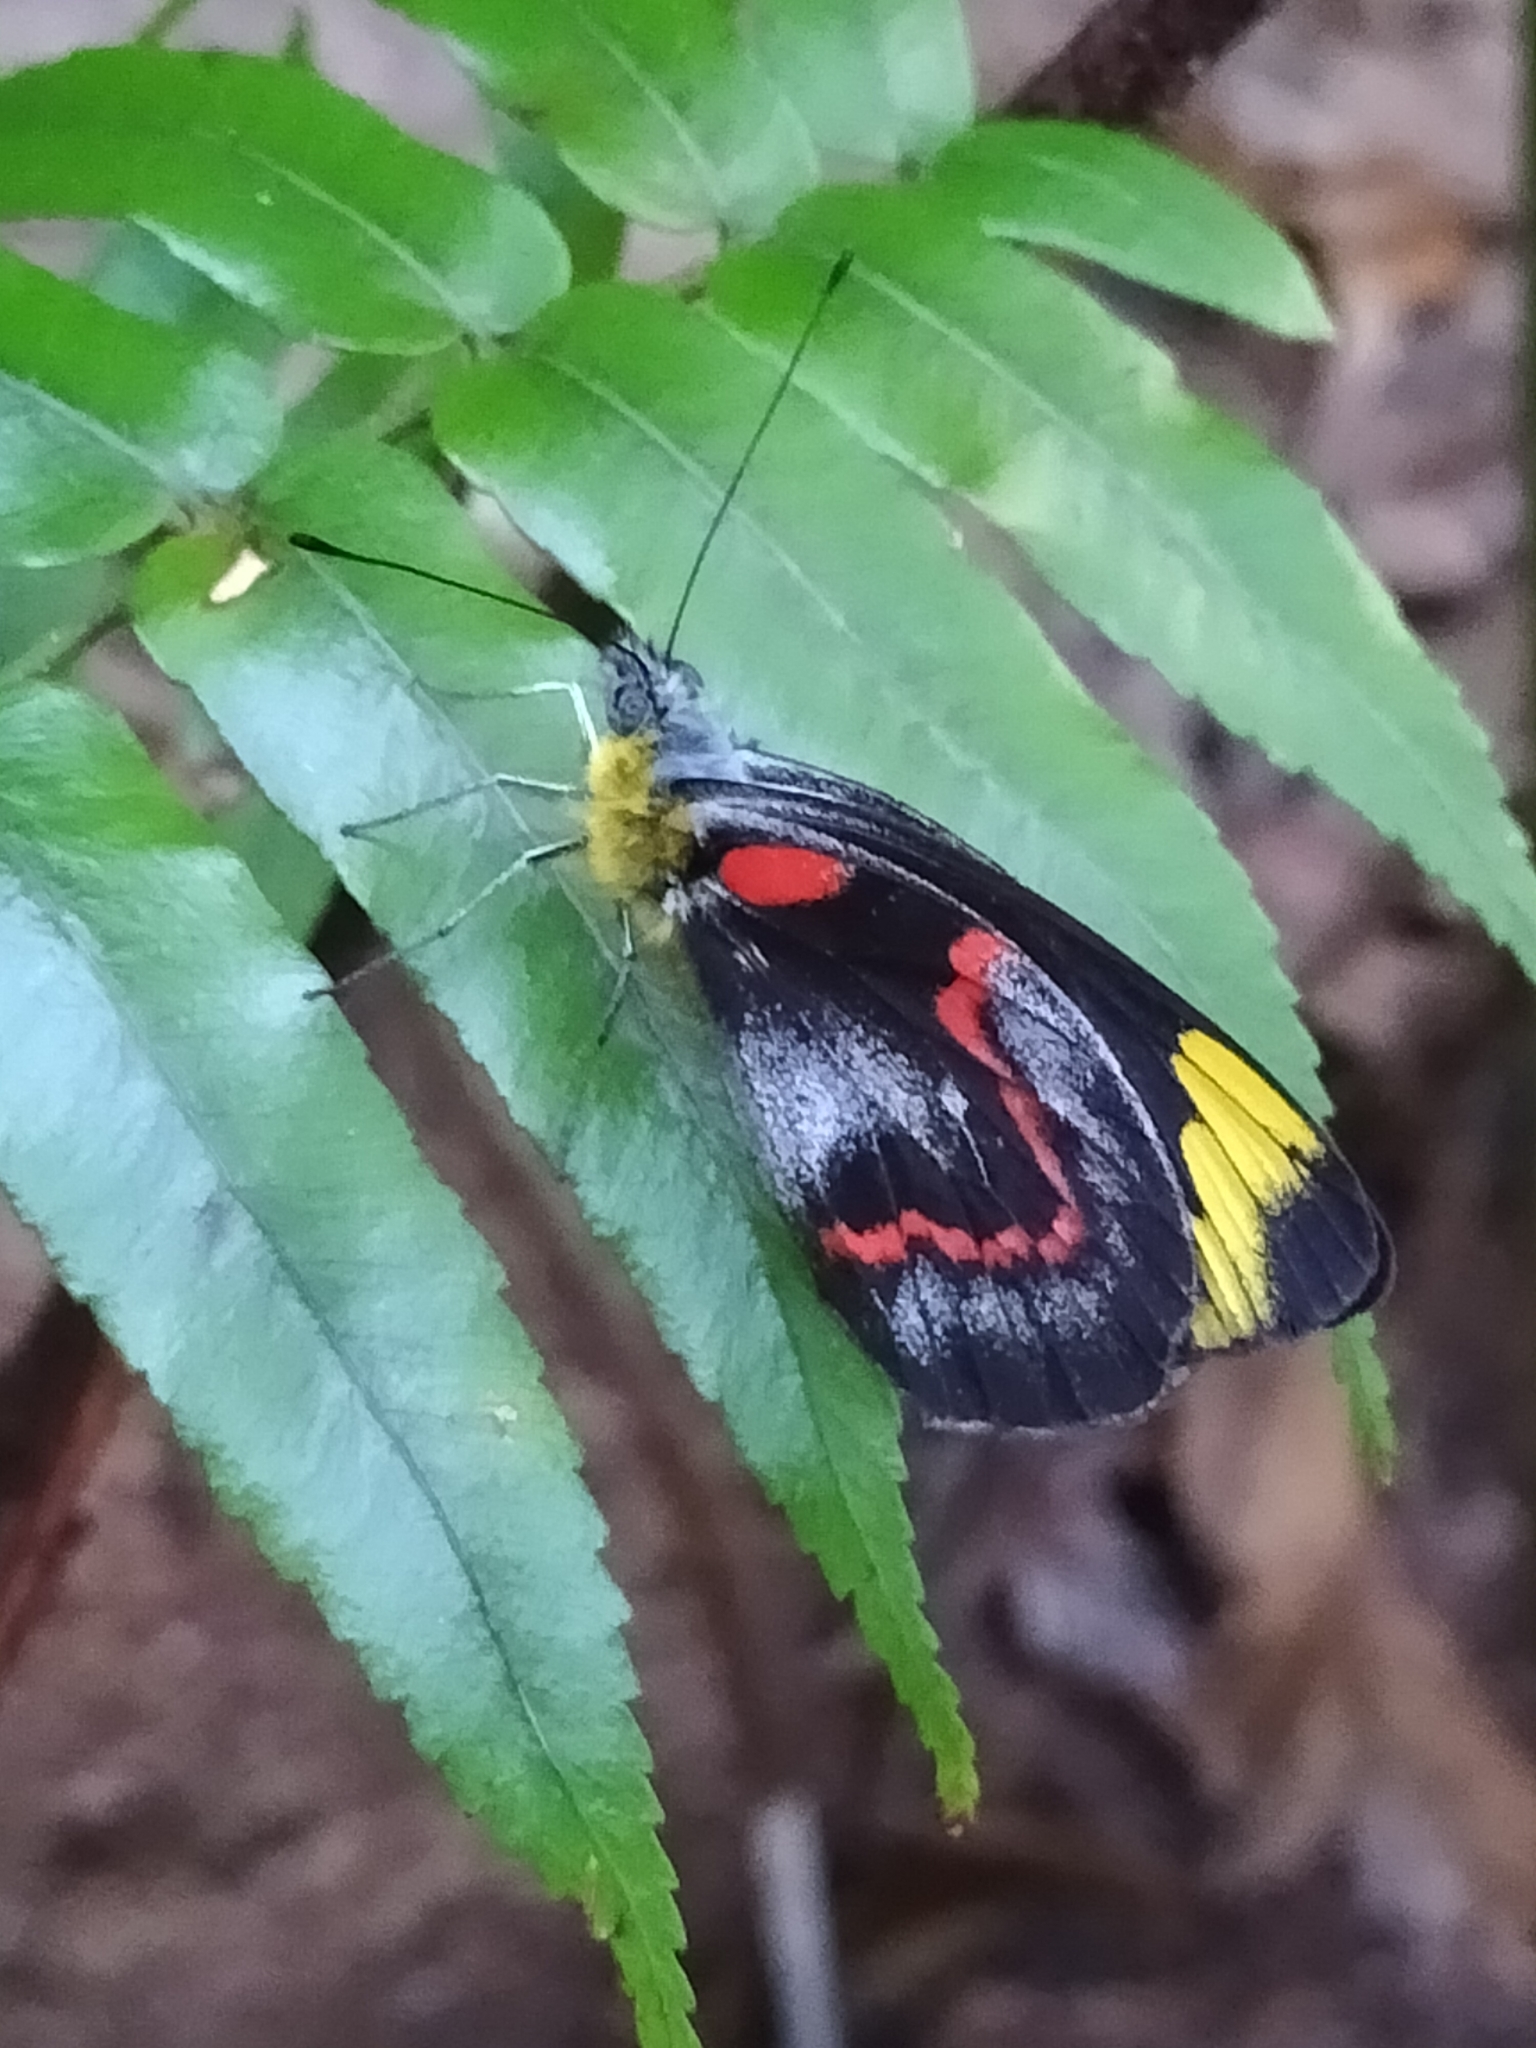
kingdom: Animalia
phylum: Arthropoda
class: Insecta
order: Lepidoptera
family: Pieridae
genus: Delias
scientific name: Delias nigrina
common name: Black jezebel
